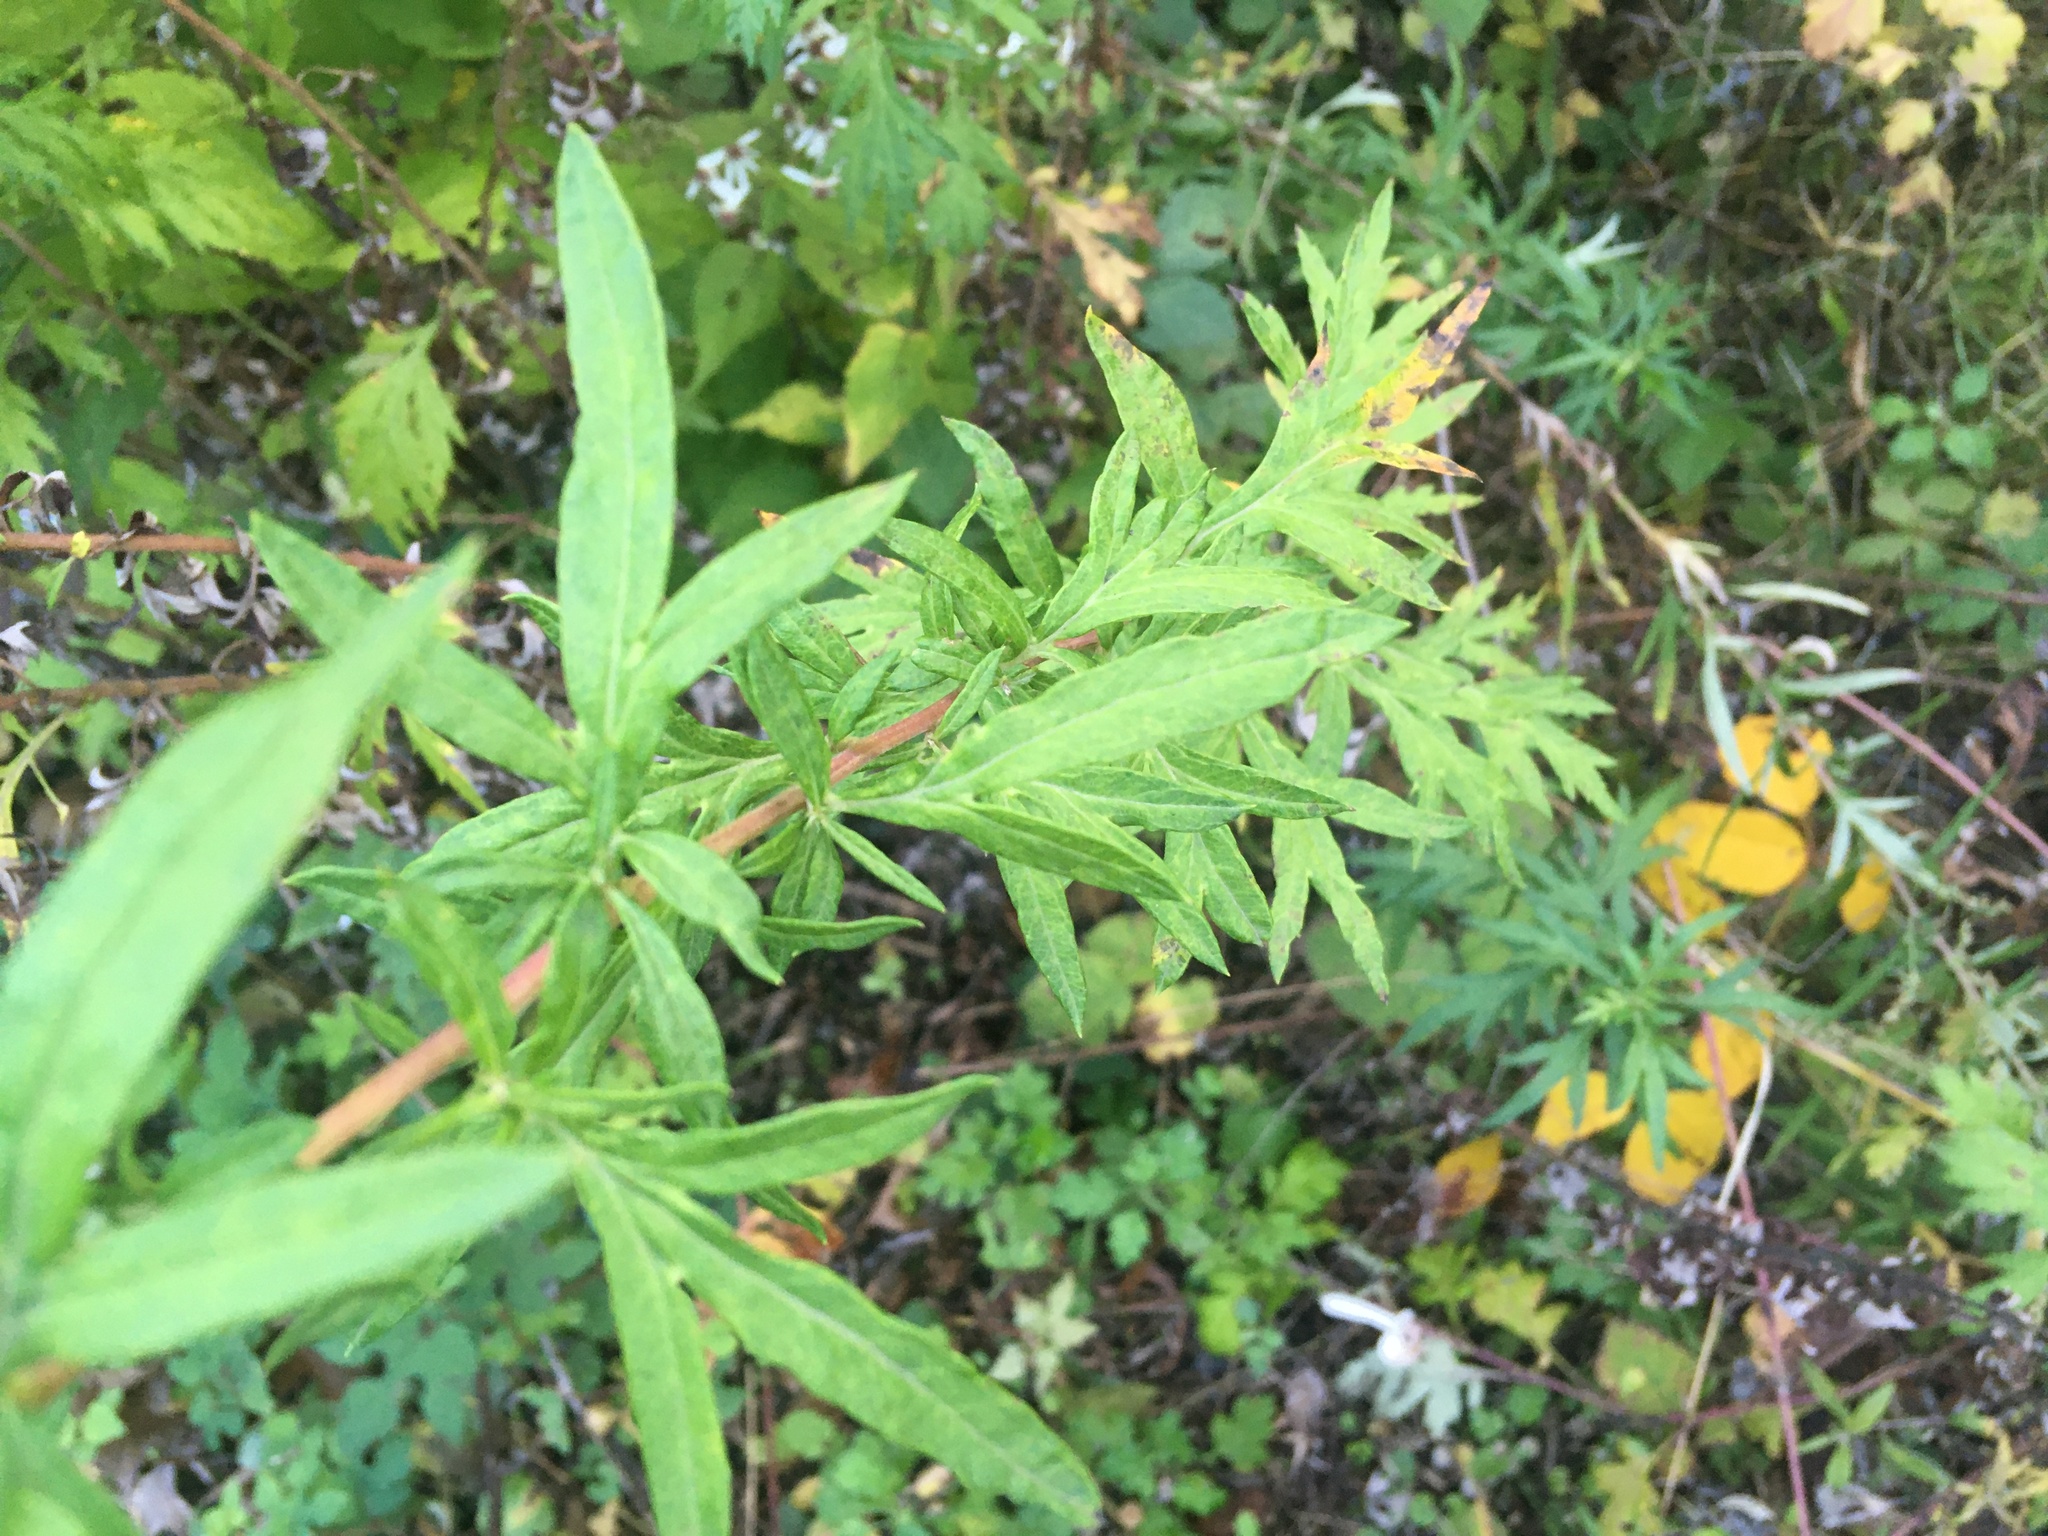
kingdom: Plantae
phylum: Tracheophyta
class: Magnoliopsida
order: Asterales
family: Asteraceae
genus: Artemisia
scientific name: Artemisia vulgaris
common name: Mugwort
